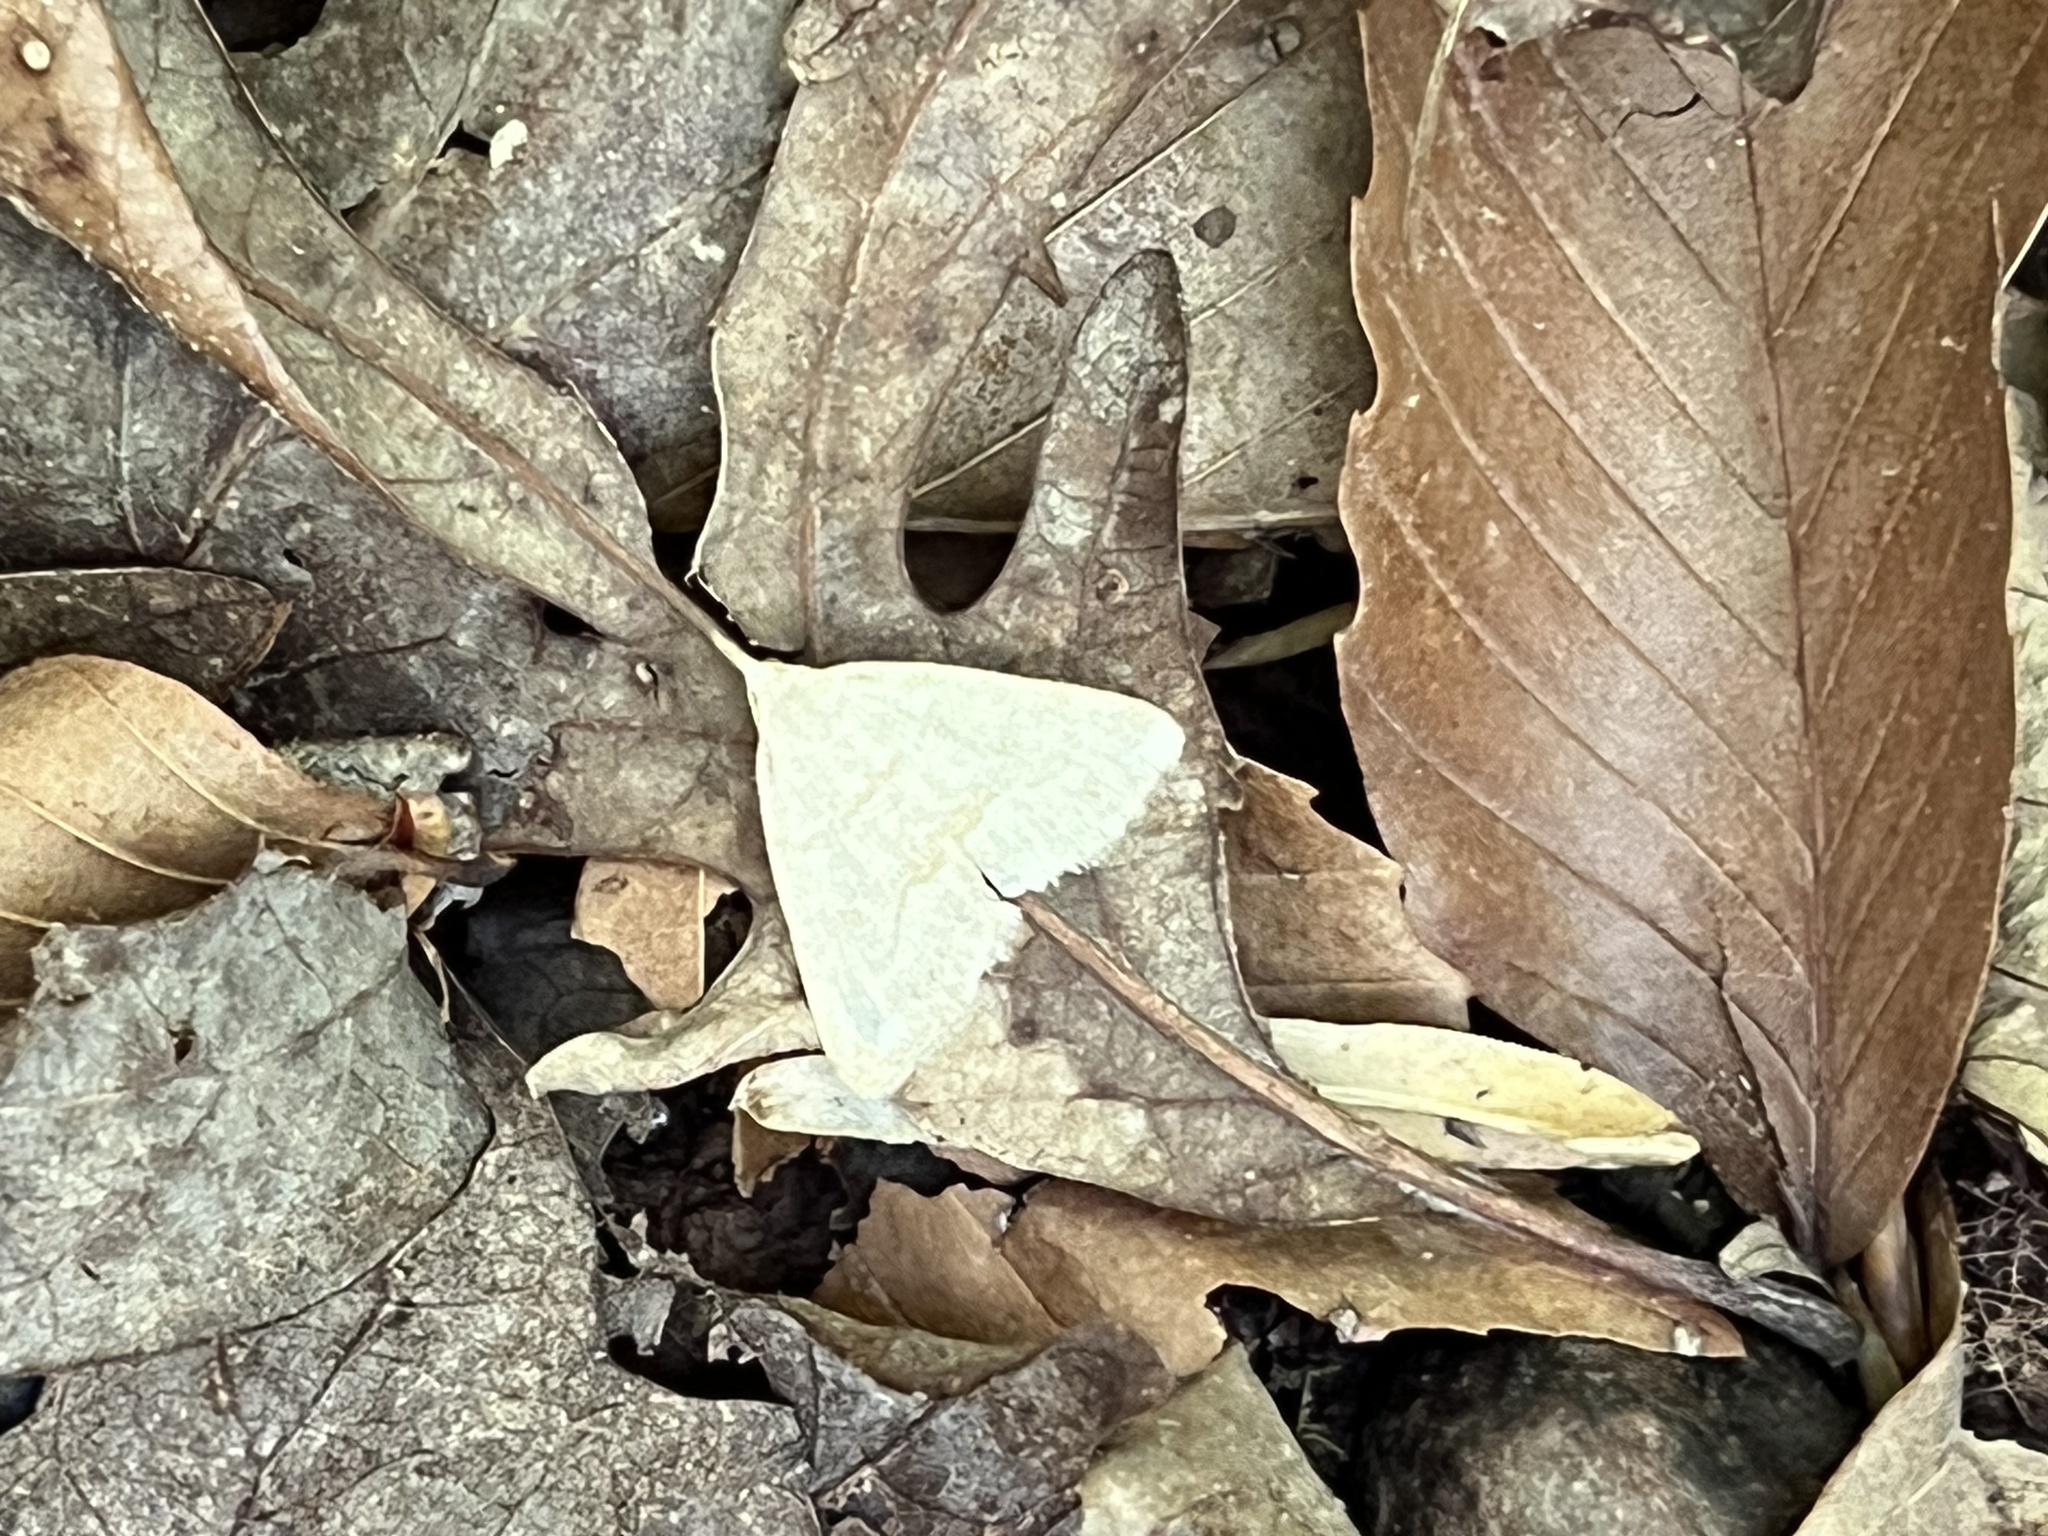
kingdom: Animalia
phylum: Arthropoda
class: Insecta
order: Lepidoptera
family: Erebidae
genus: Macrochilo
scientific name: Macrochilo morbidalis
